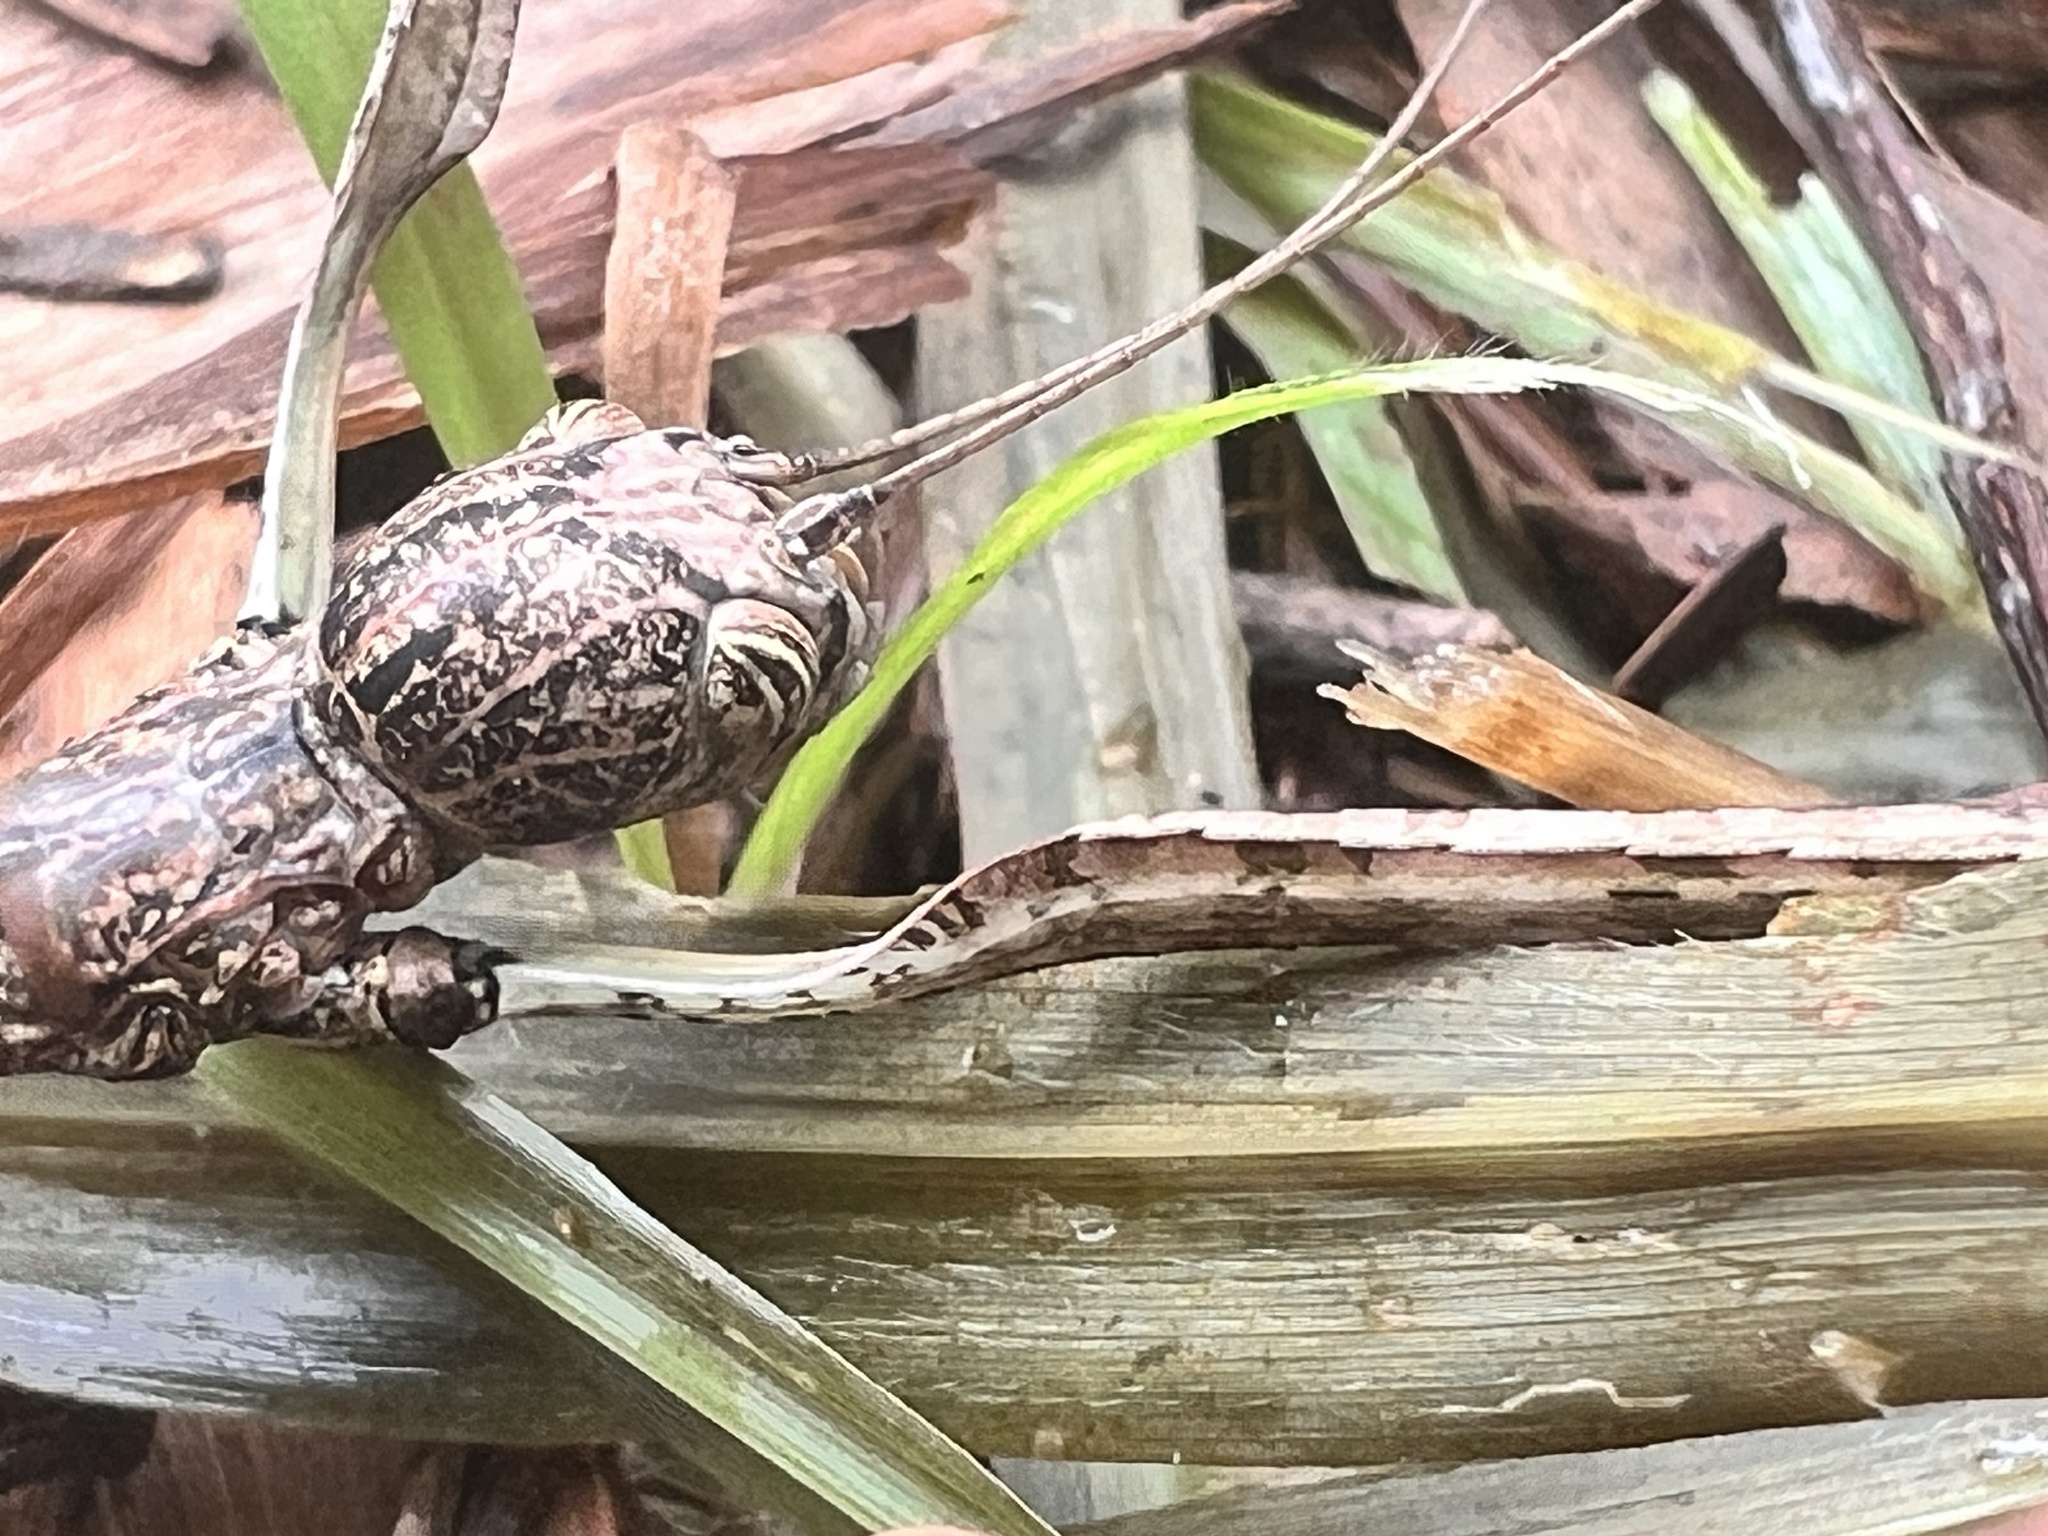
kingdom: Animalia
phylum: Arthropoda
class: Insecta
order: Phasmida
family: Phasmatidae
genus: Anchiale
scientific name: Anchiale briareus
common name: Strong stick insect
